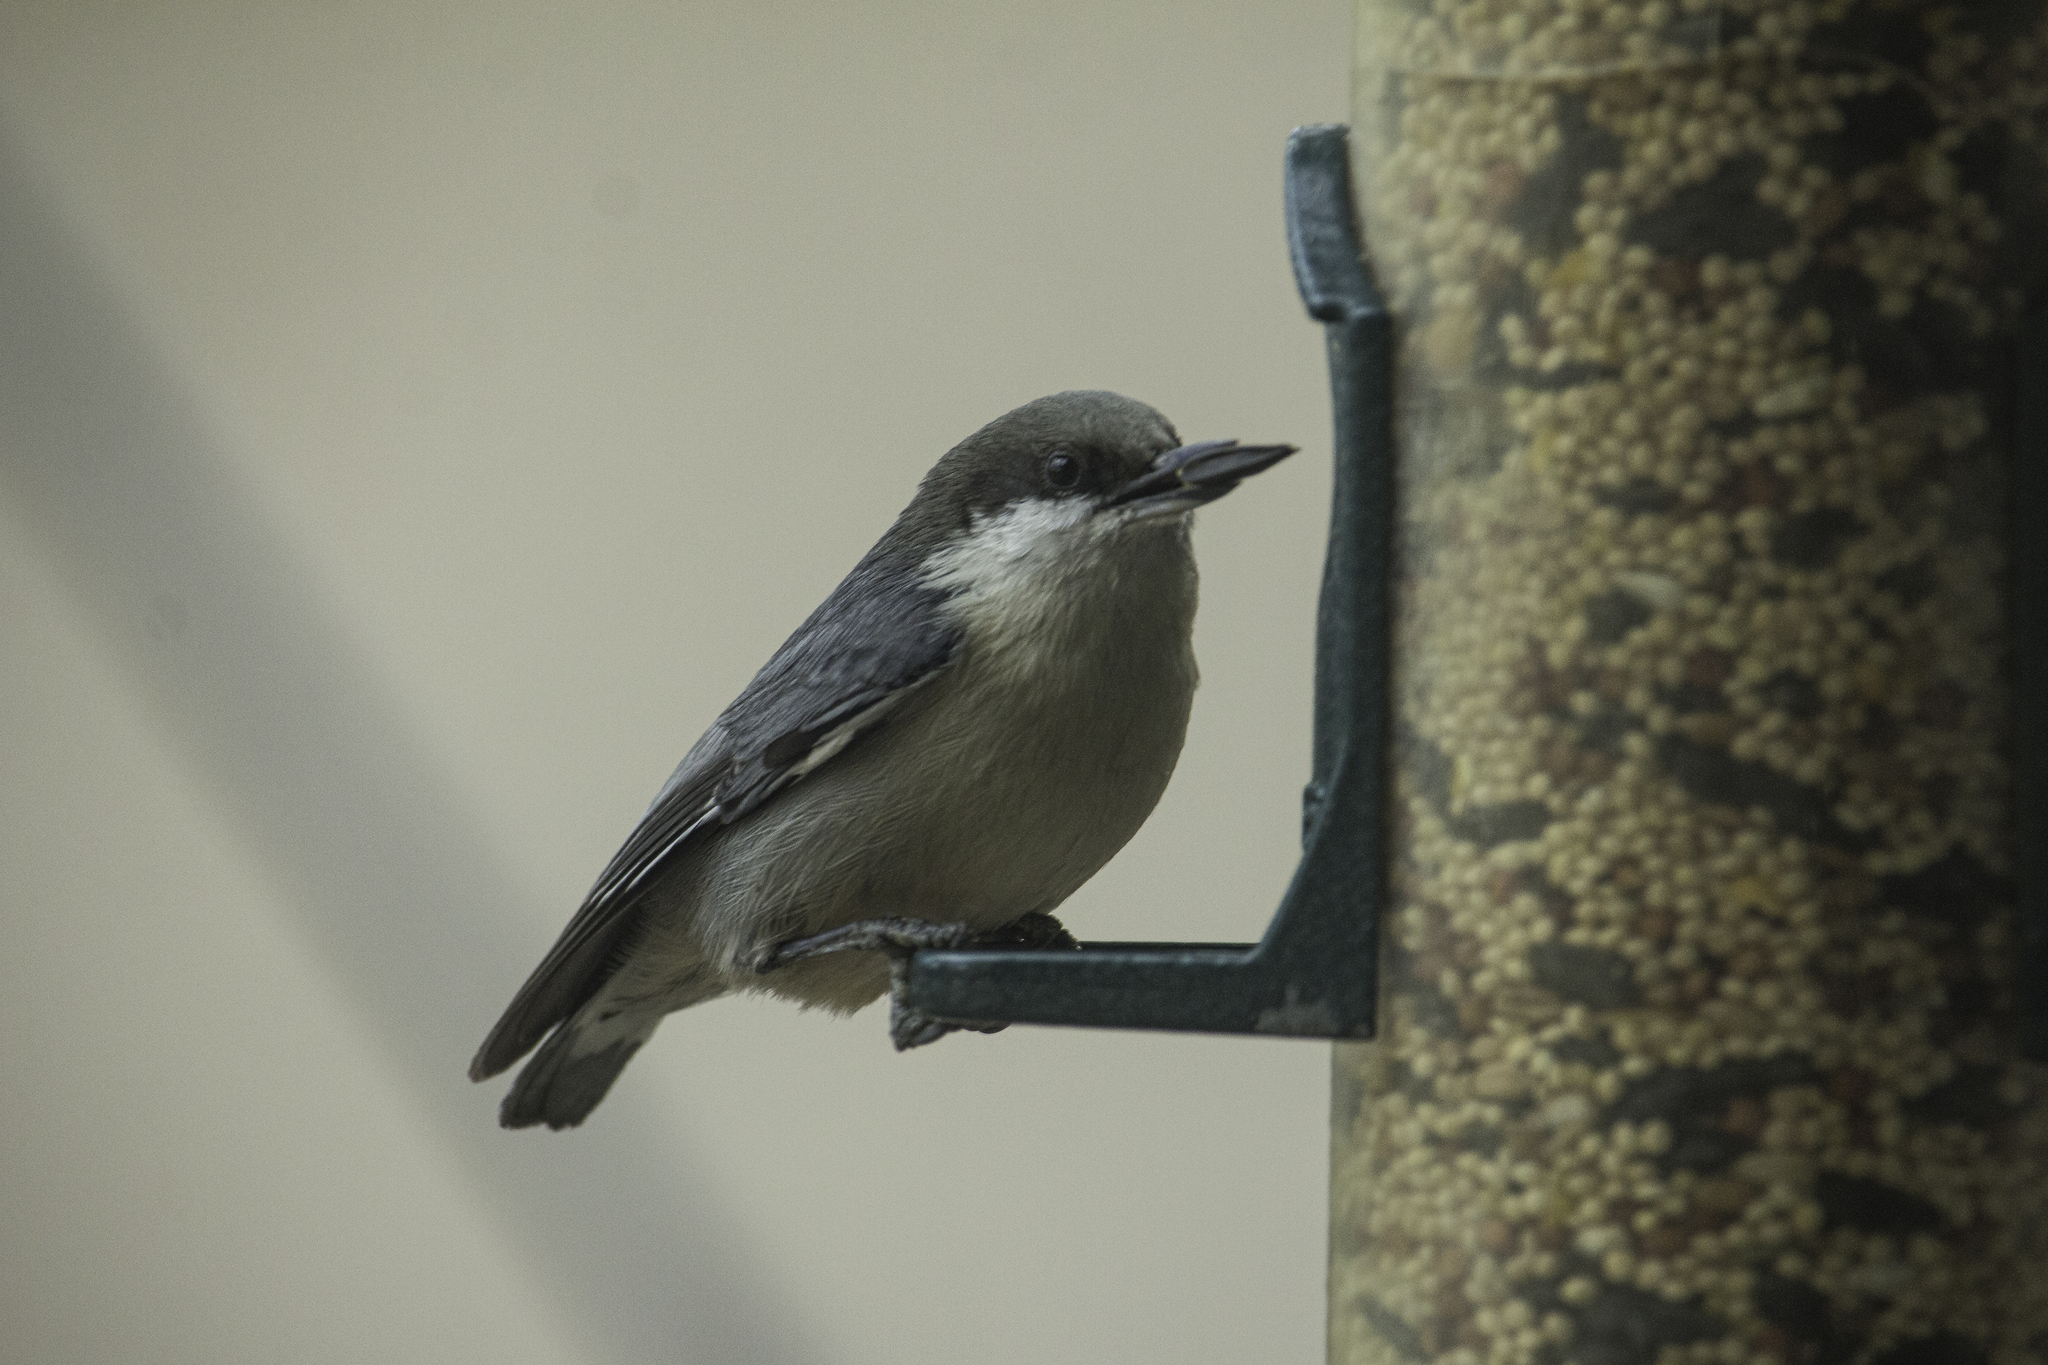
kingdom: Animalia
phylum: Chordata
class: Aves
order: Passeriformes
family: Sittidae
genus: Sitta
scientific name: Sitta pygmaea
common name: Pygmy nuthatch
